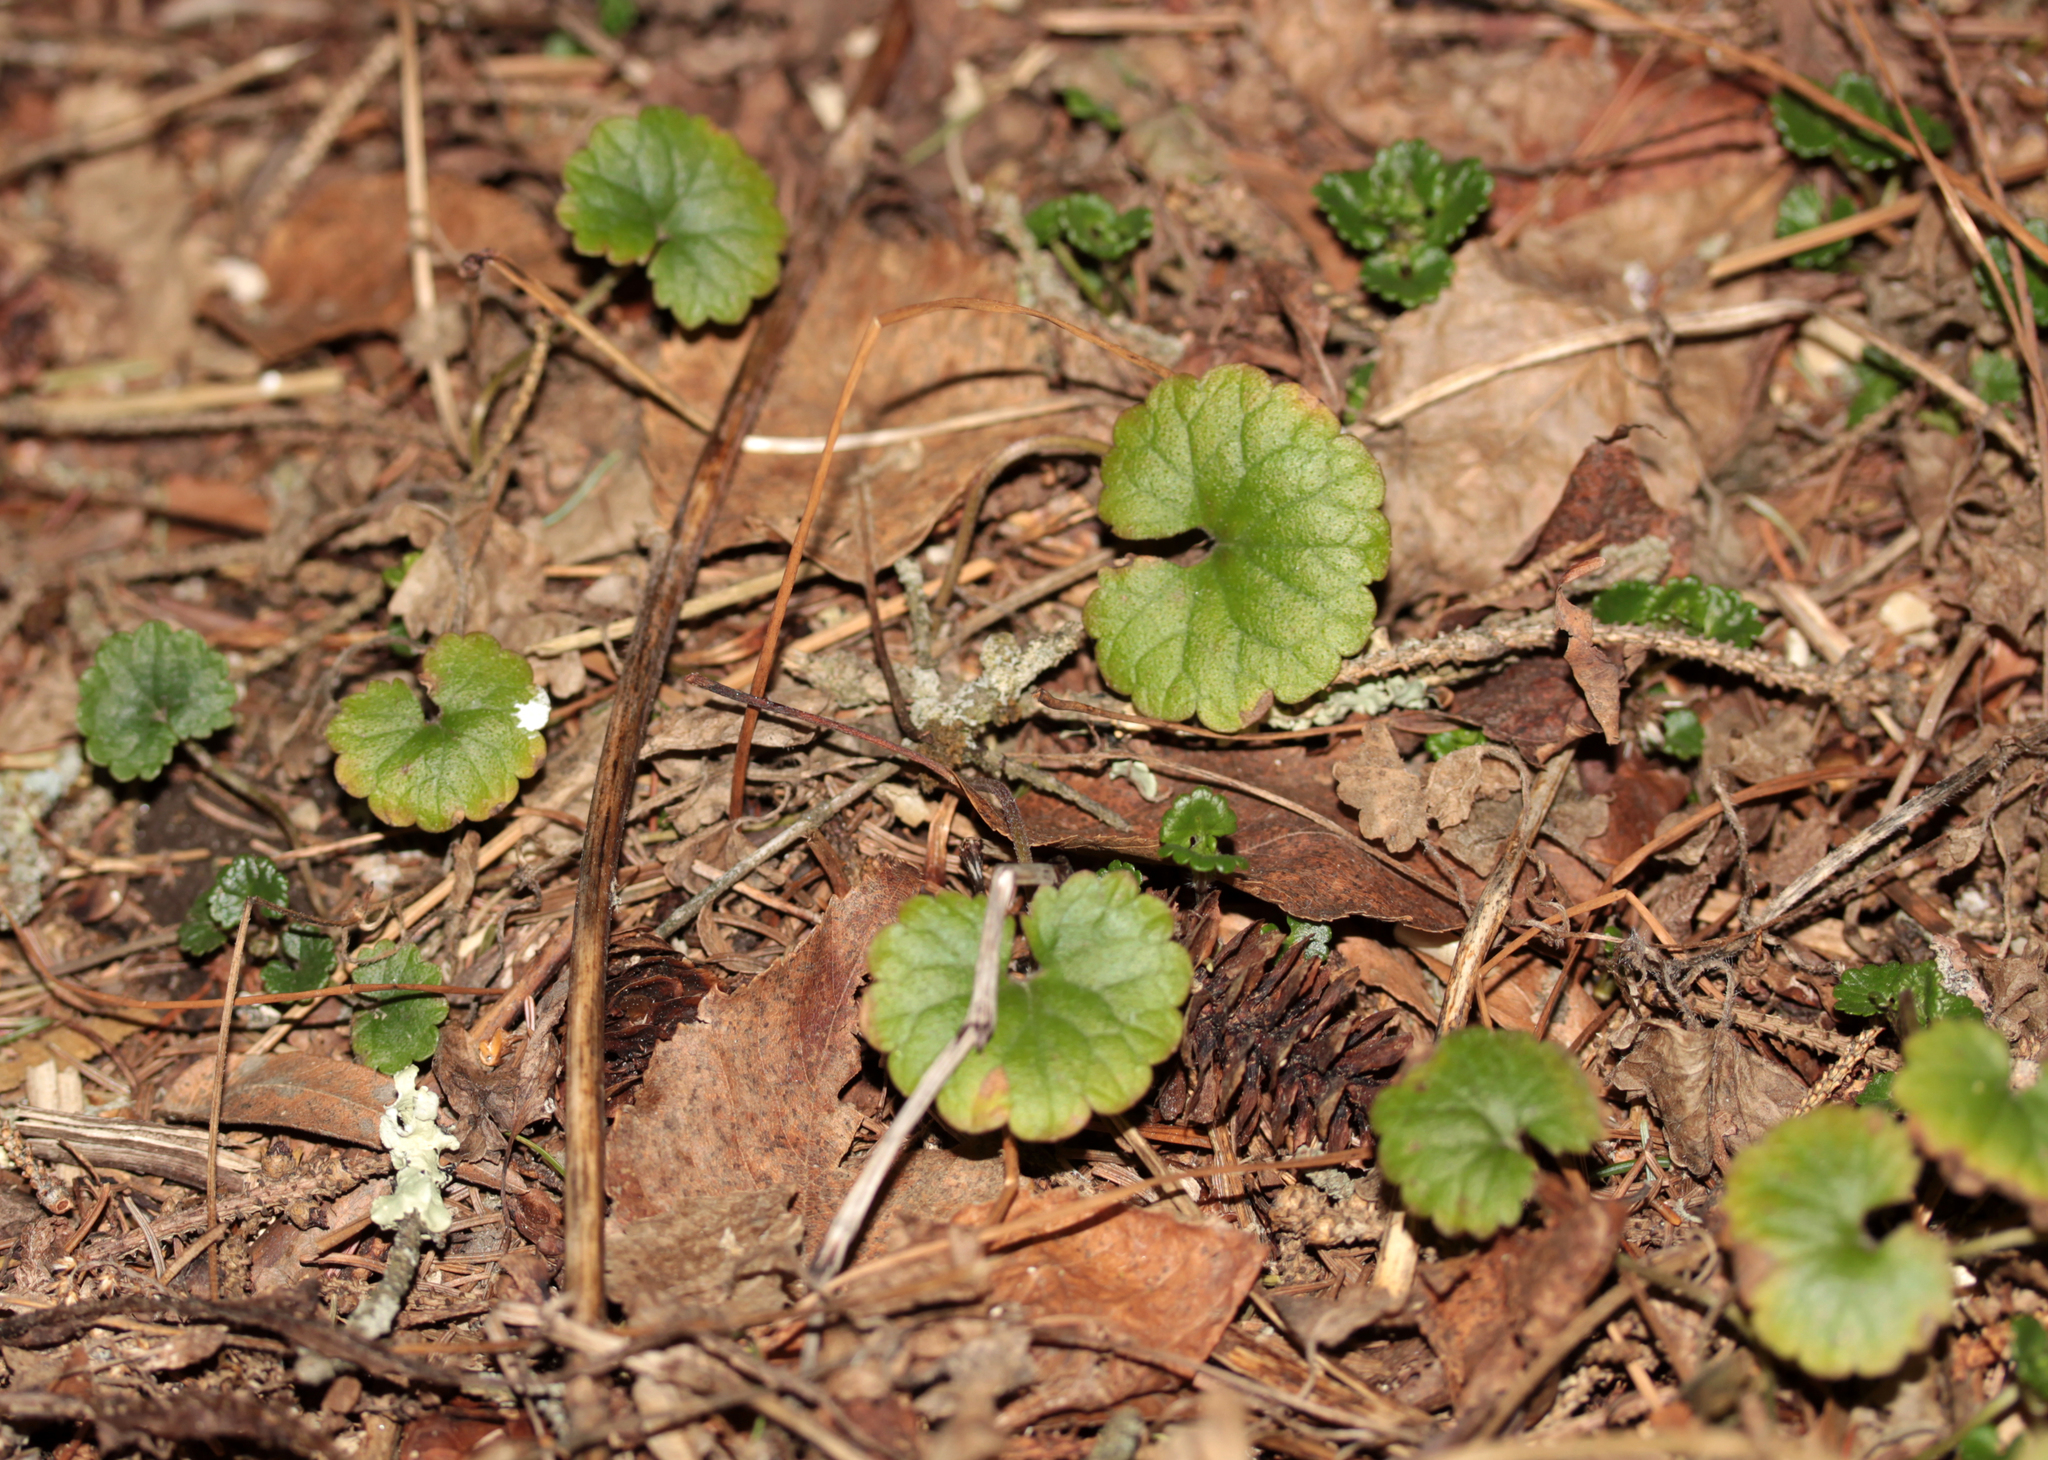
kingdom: Plantae
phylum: Tracheophyta
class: Magnoliopsida
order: Lamiales
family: Lamiaceae
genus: Glechoma
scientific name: Glechoma hederacea
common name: Ground ivy
